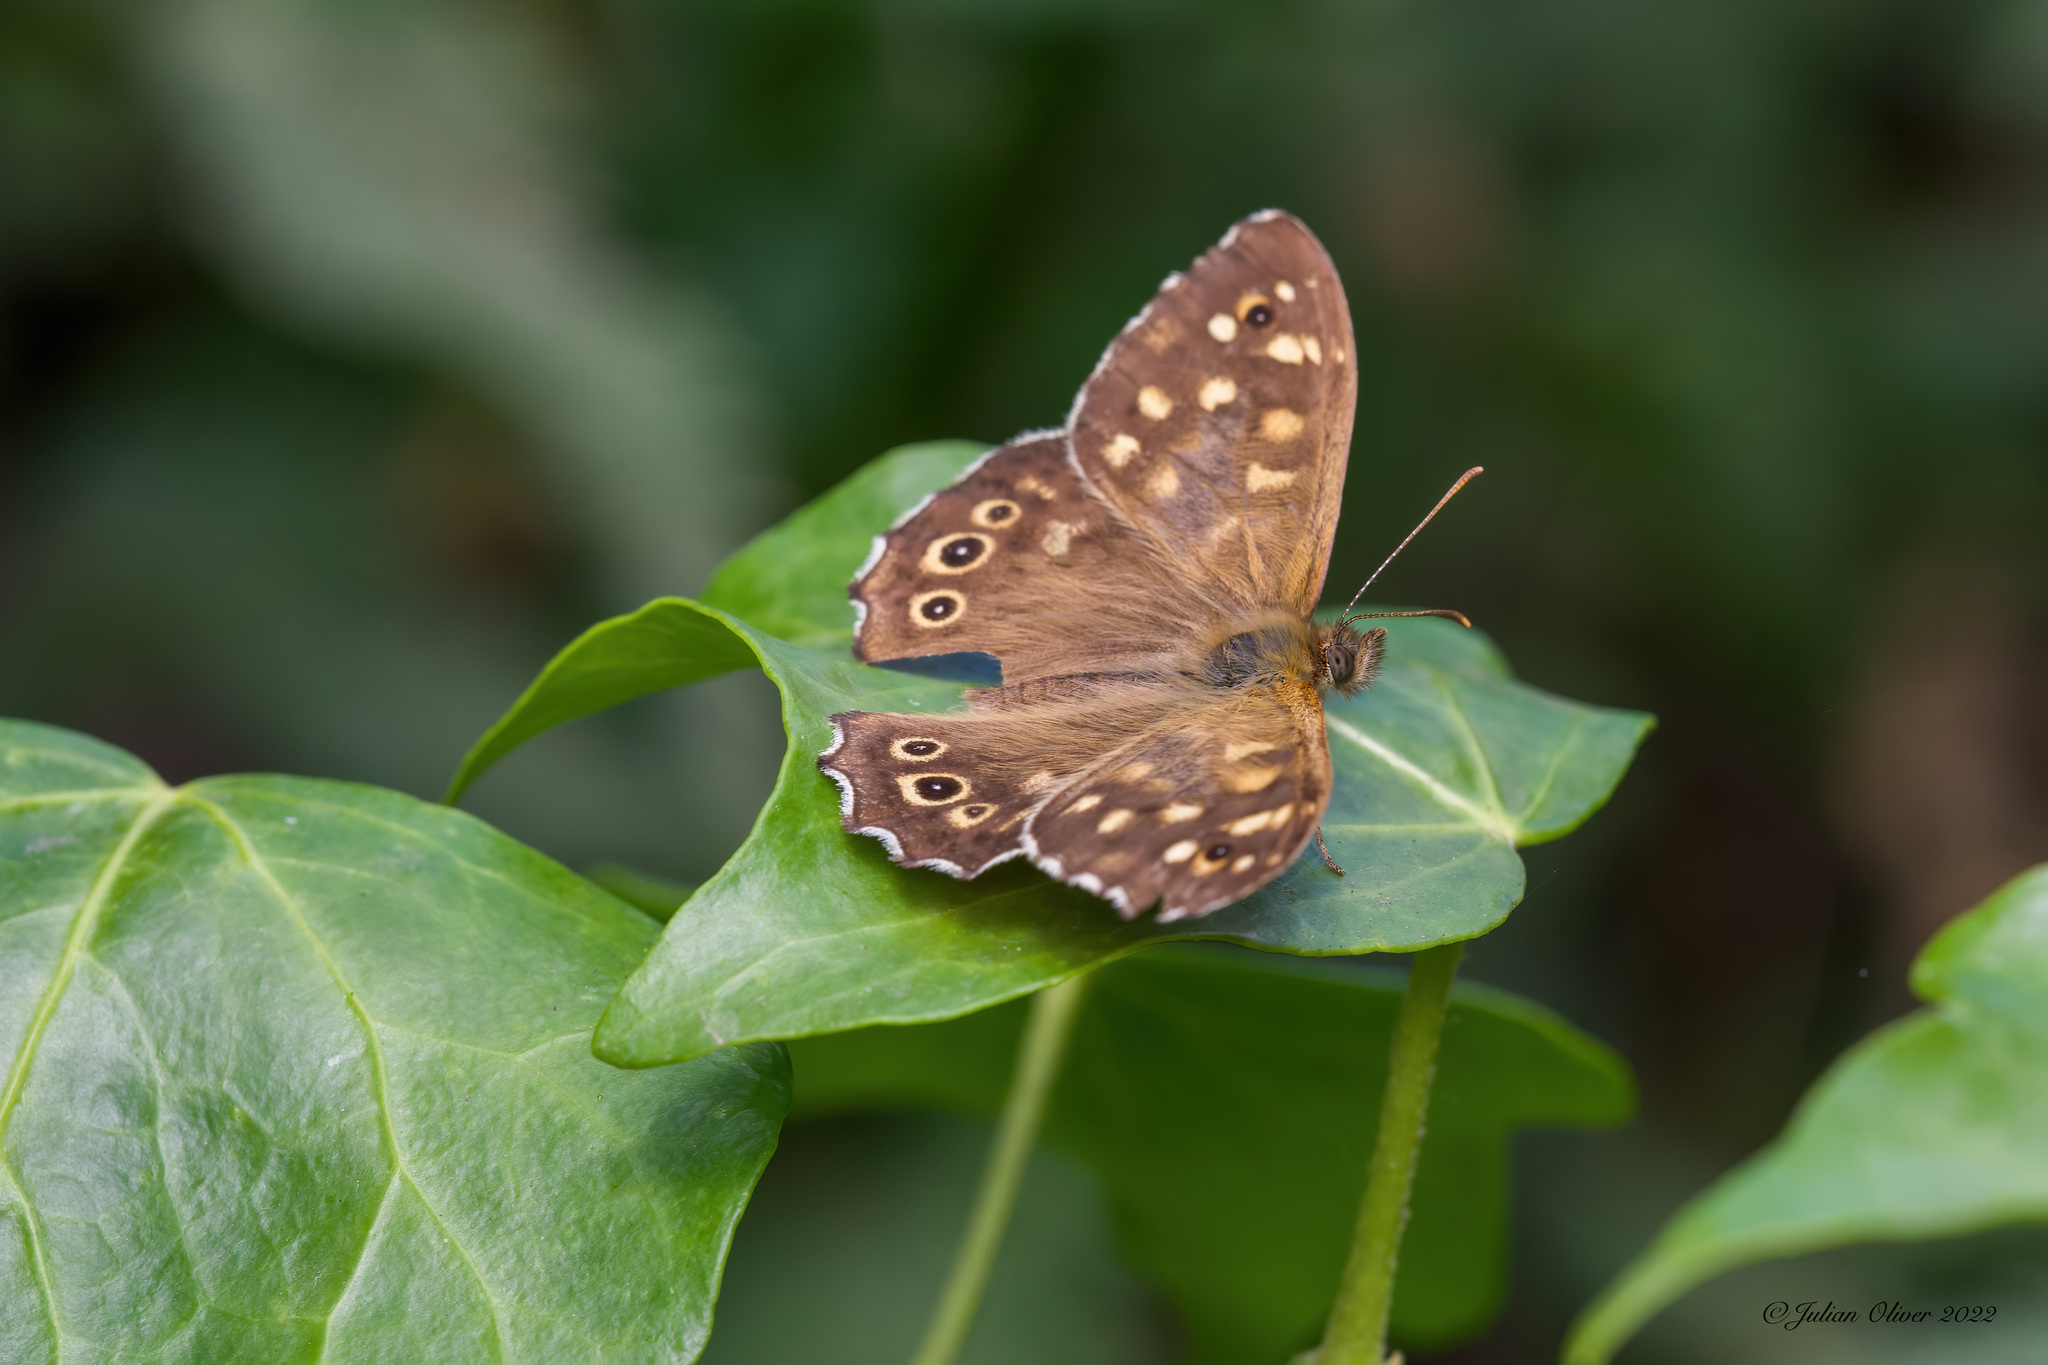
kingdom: Animalia
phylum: Arthropoda
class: Insecta
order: Lepidoptera
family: Nymphalidae
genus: Pararge
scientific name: Pararge aegeria
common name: Speckled wood
